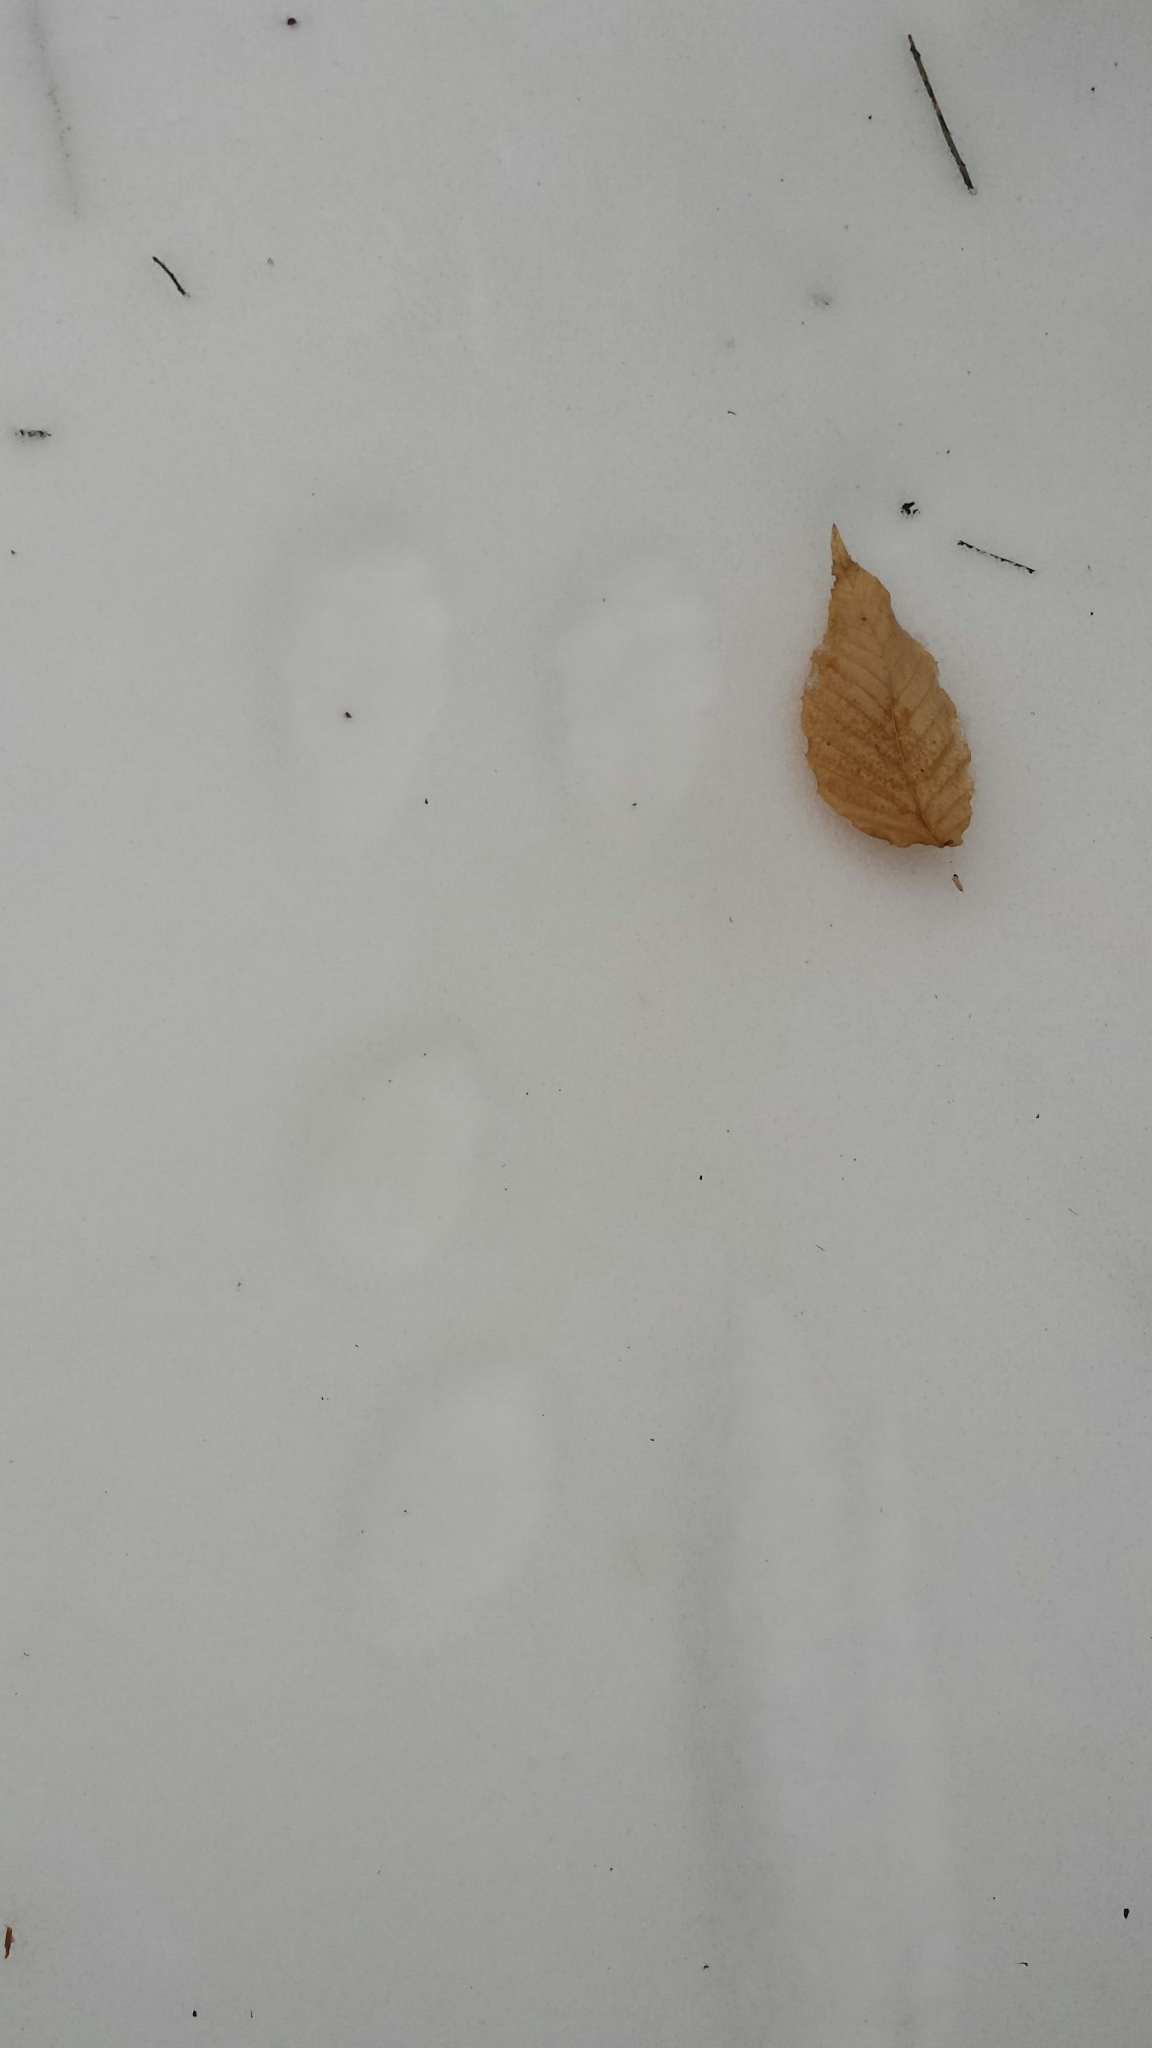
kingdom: Animalia
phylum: Chordata
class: Mammalia
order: Lagomorpha
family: Leporidae
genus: Lepus
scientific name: Lepus americanus
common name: Snowshoe hare
